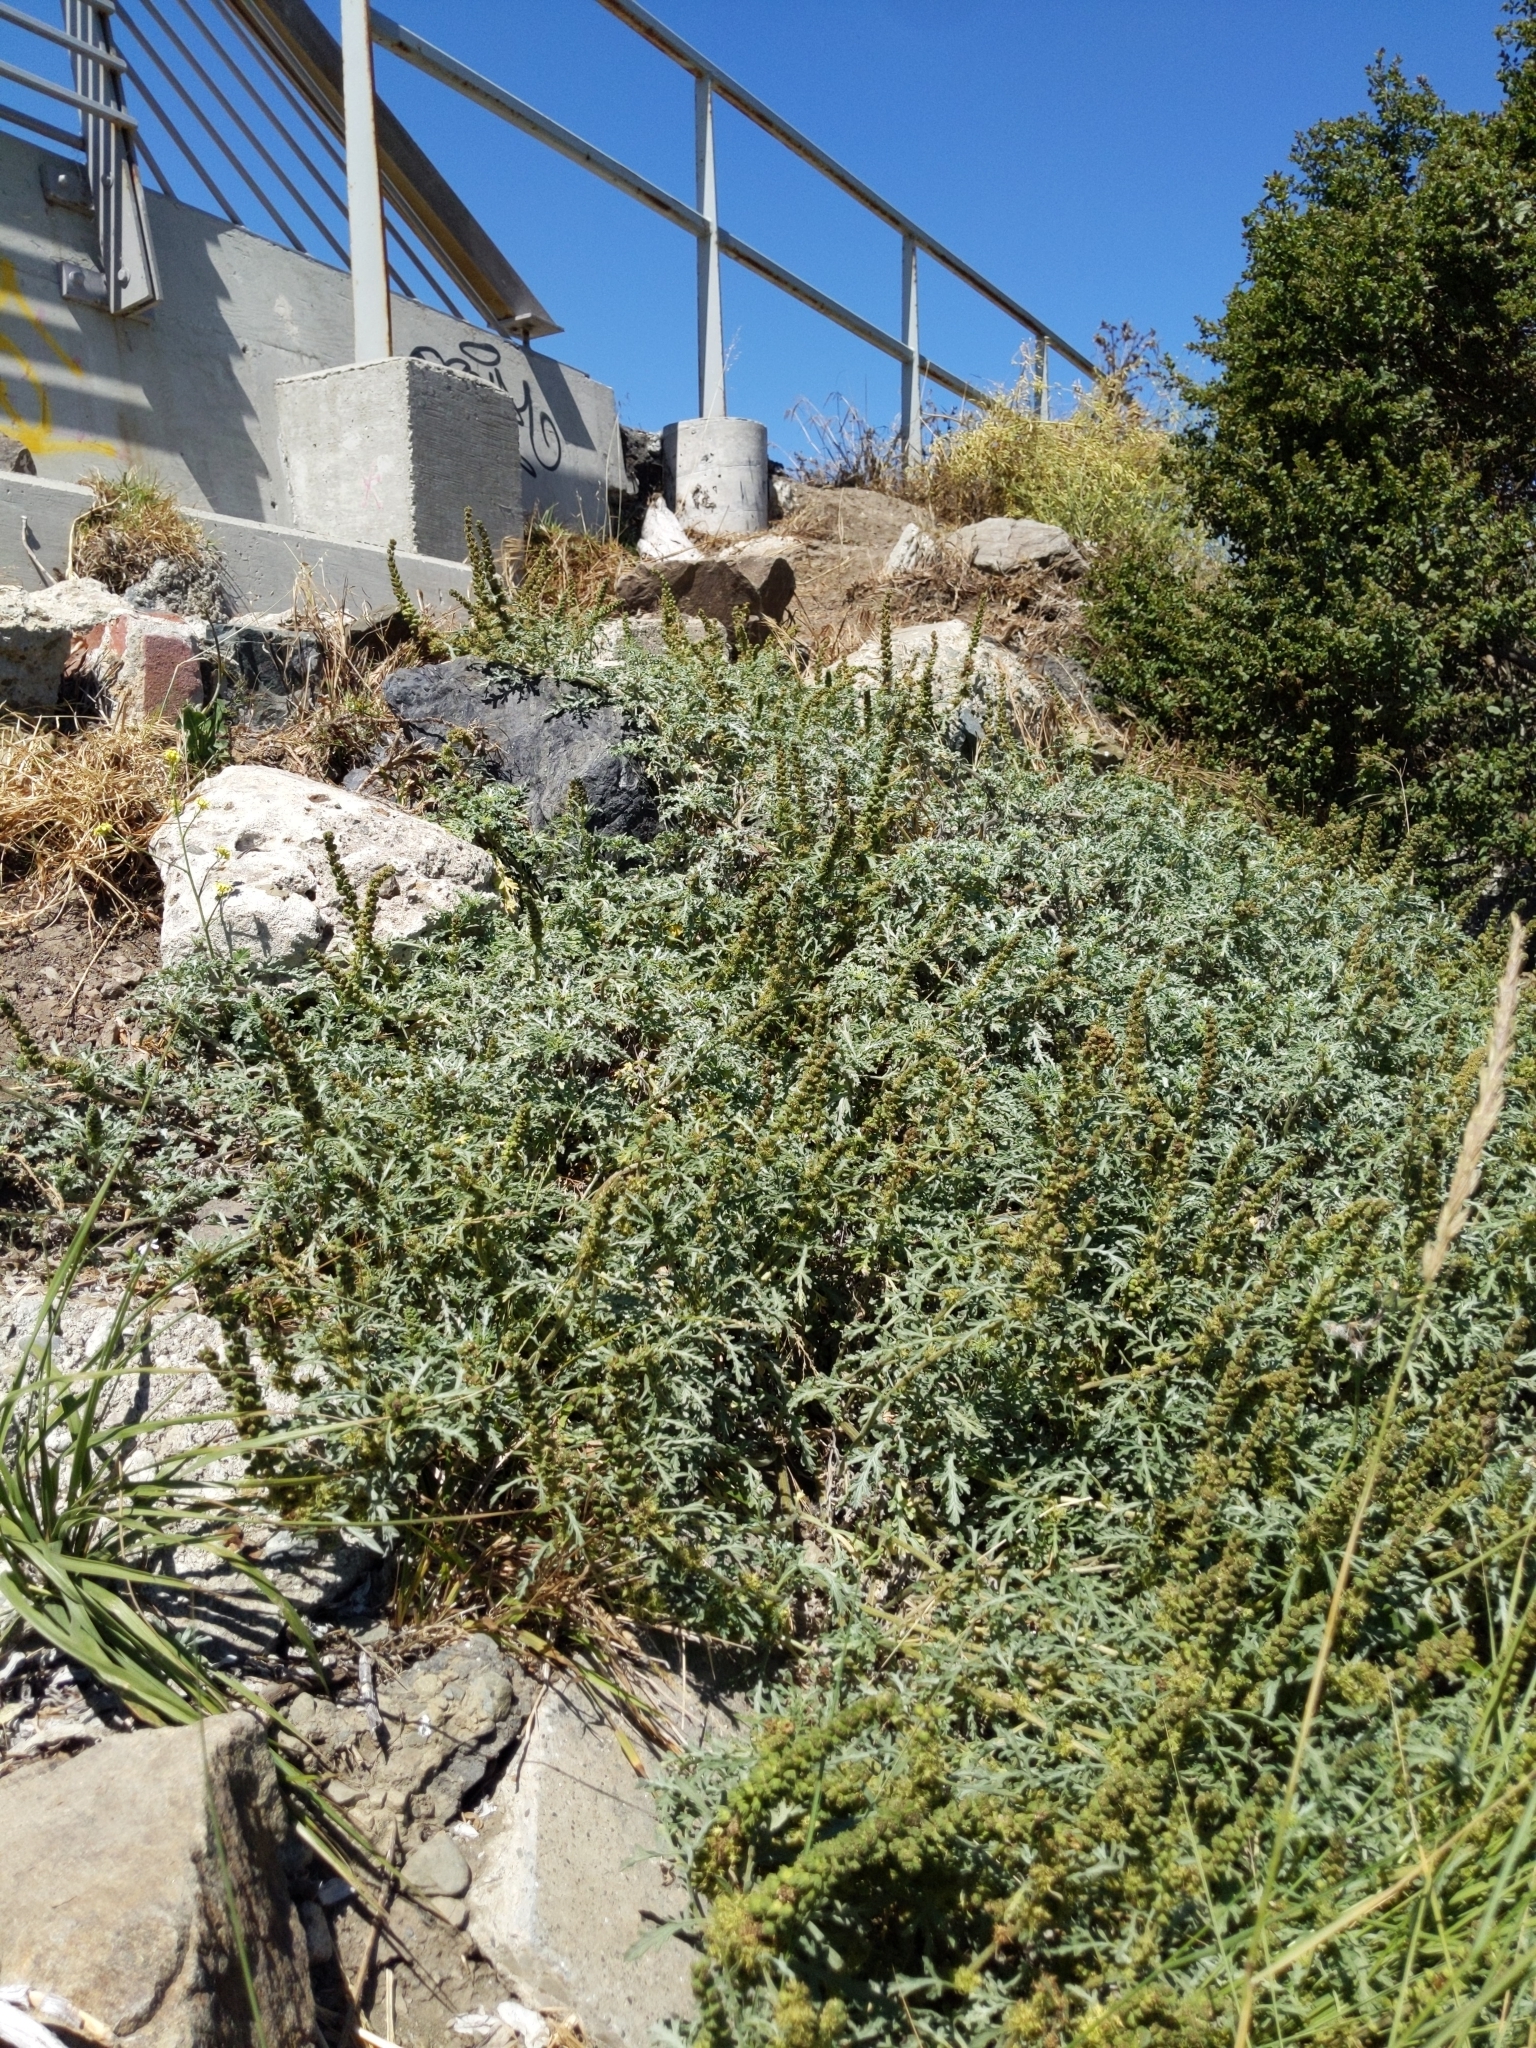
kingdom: Plantae
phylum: Tracheophyta
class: Magnoliopsida
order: Asterales
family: Asteraceae
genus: Ambrosia
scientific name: Ambrosia chamissonis
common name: Beachbur
